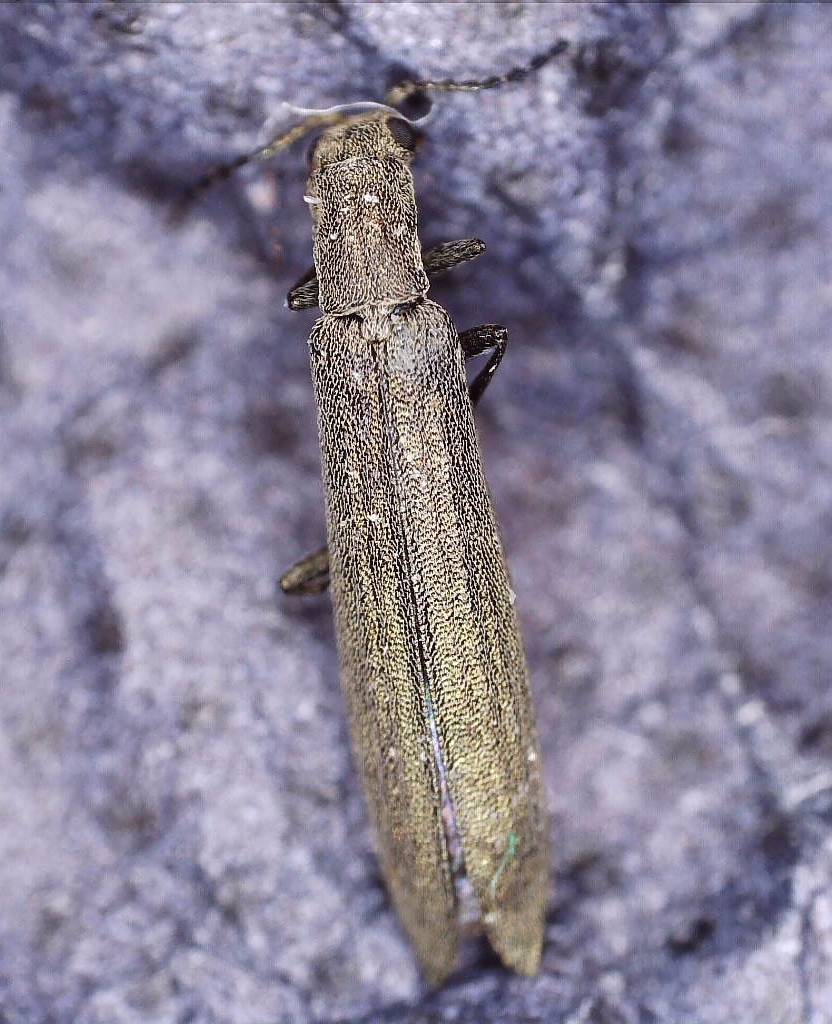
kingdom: Animalia
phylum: Arthropoda
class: Insecta
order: Coleoptera
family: Melyridae
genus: Dolichosoma
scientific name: Dolichosoma lineare
